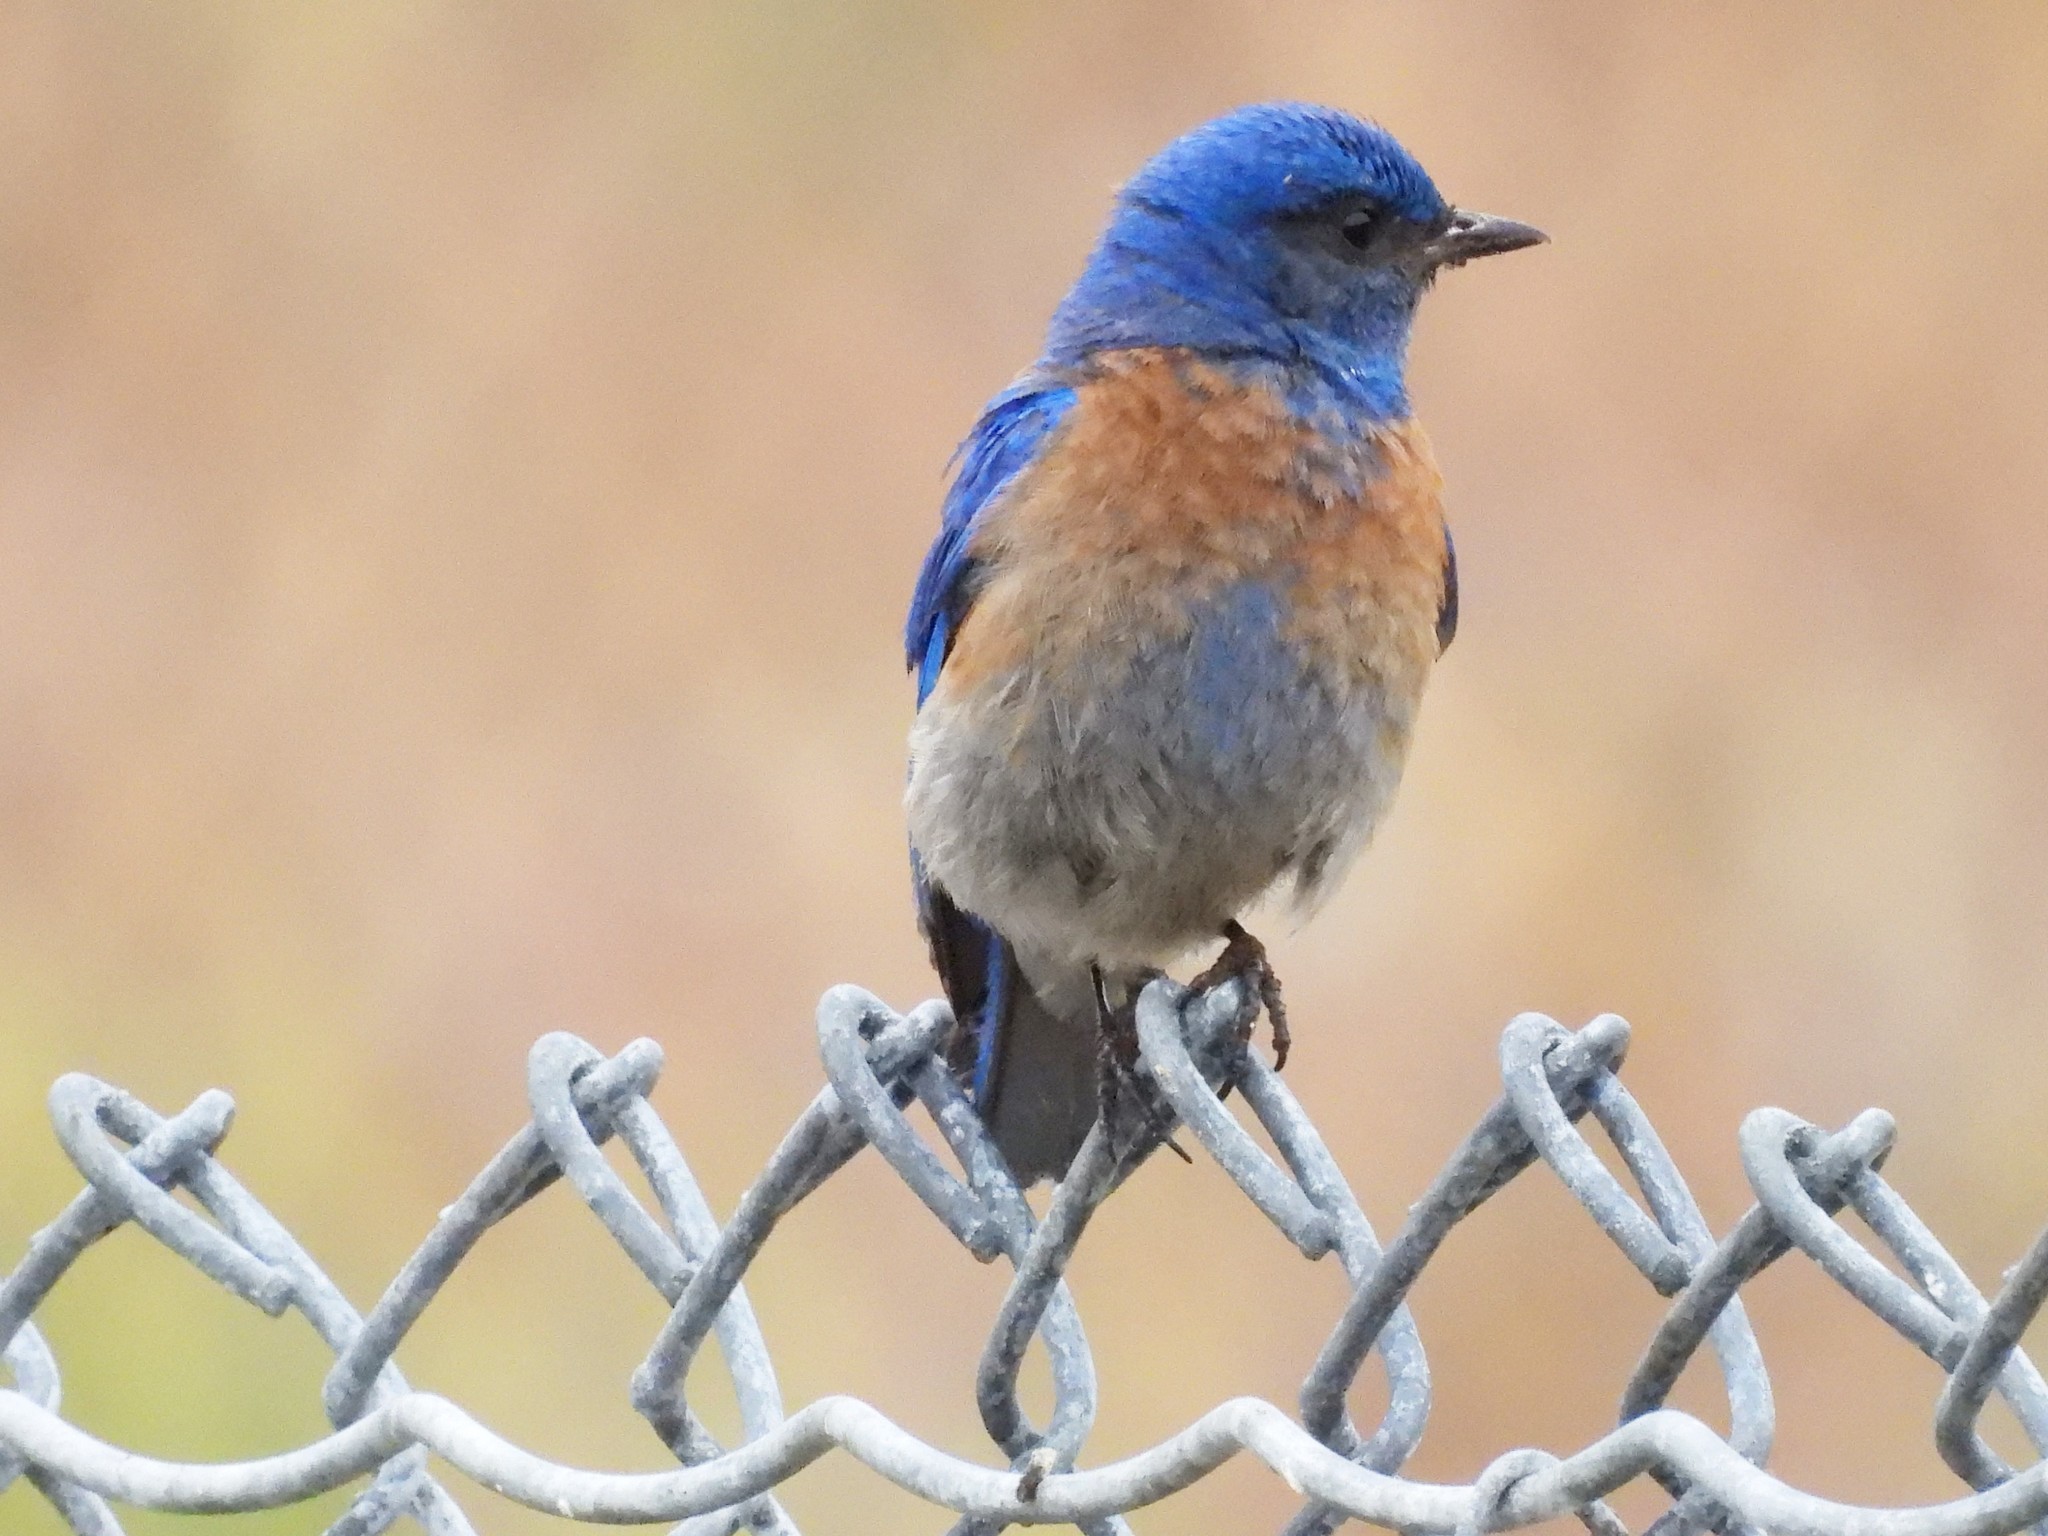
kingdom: Animalia
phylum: Chordata
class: Aves
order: Passeriformes
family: Turdidae
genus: Sialia
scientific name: Sialia mexicana
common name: Western bluebird
